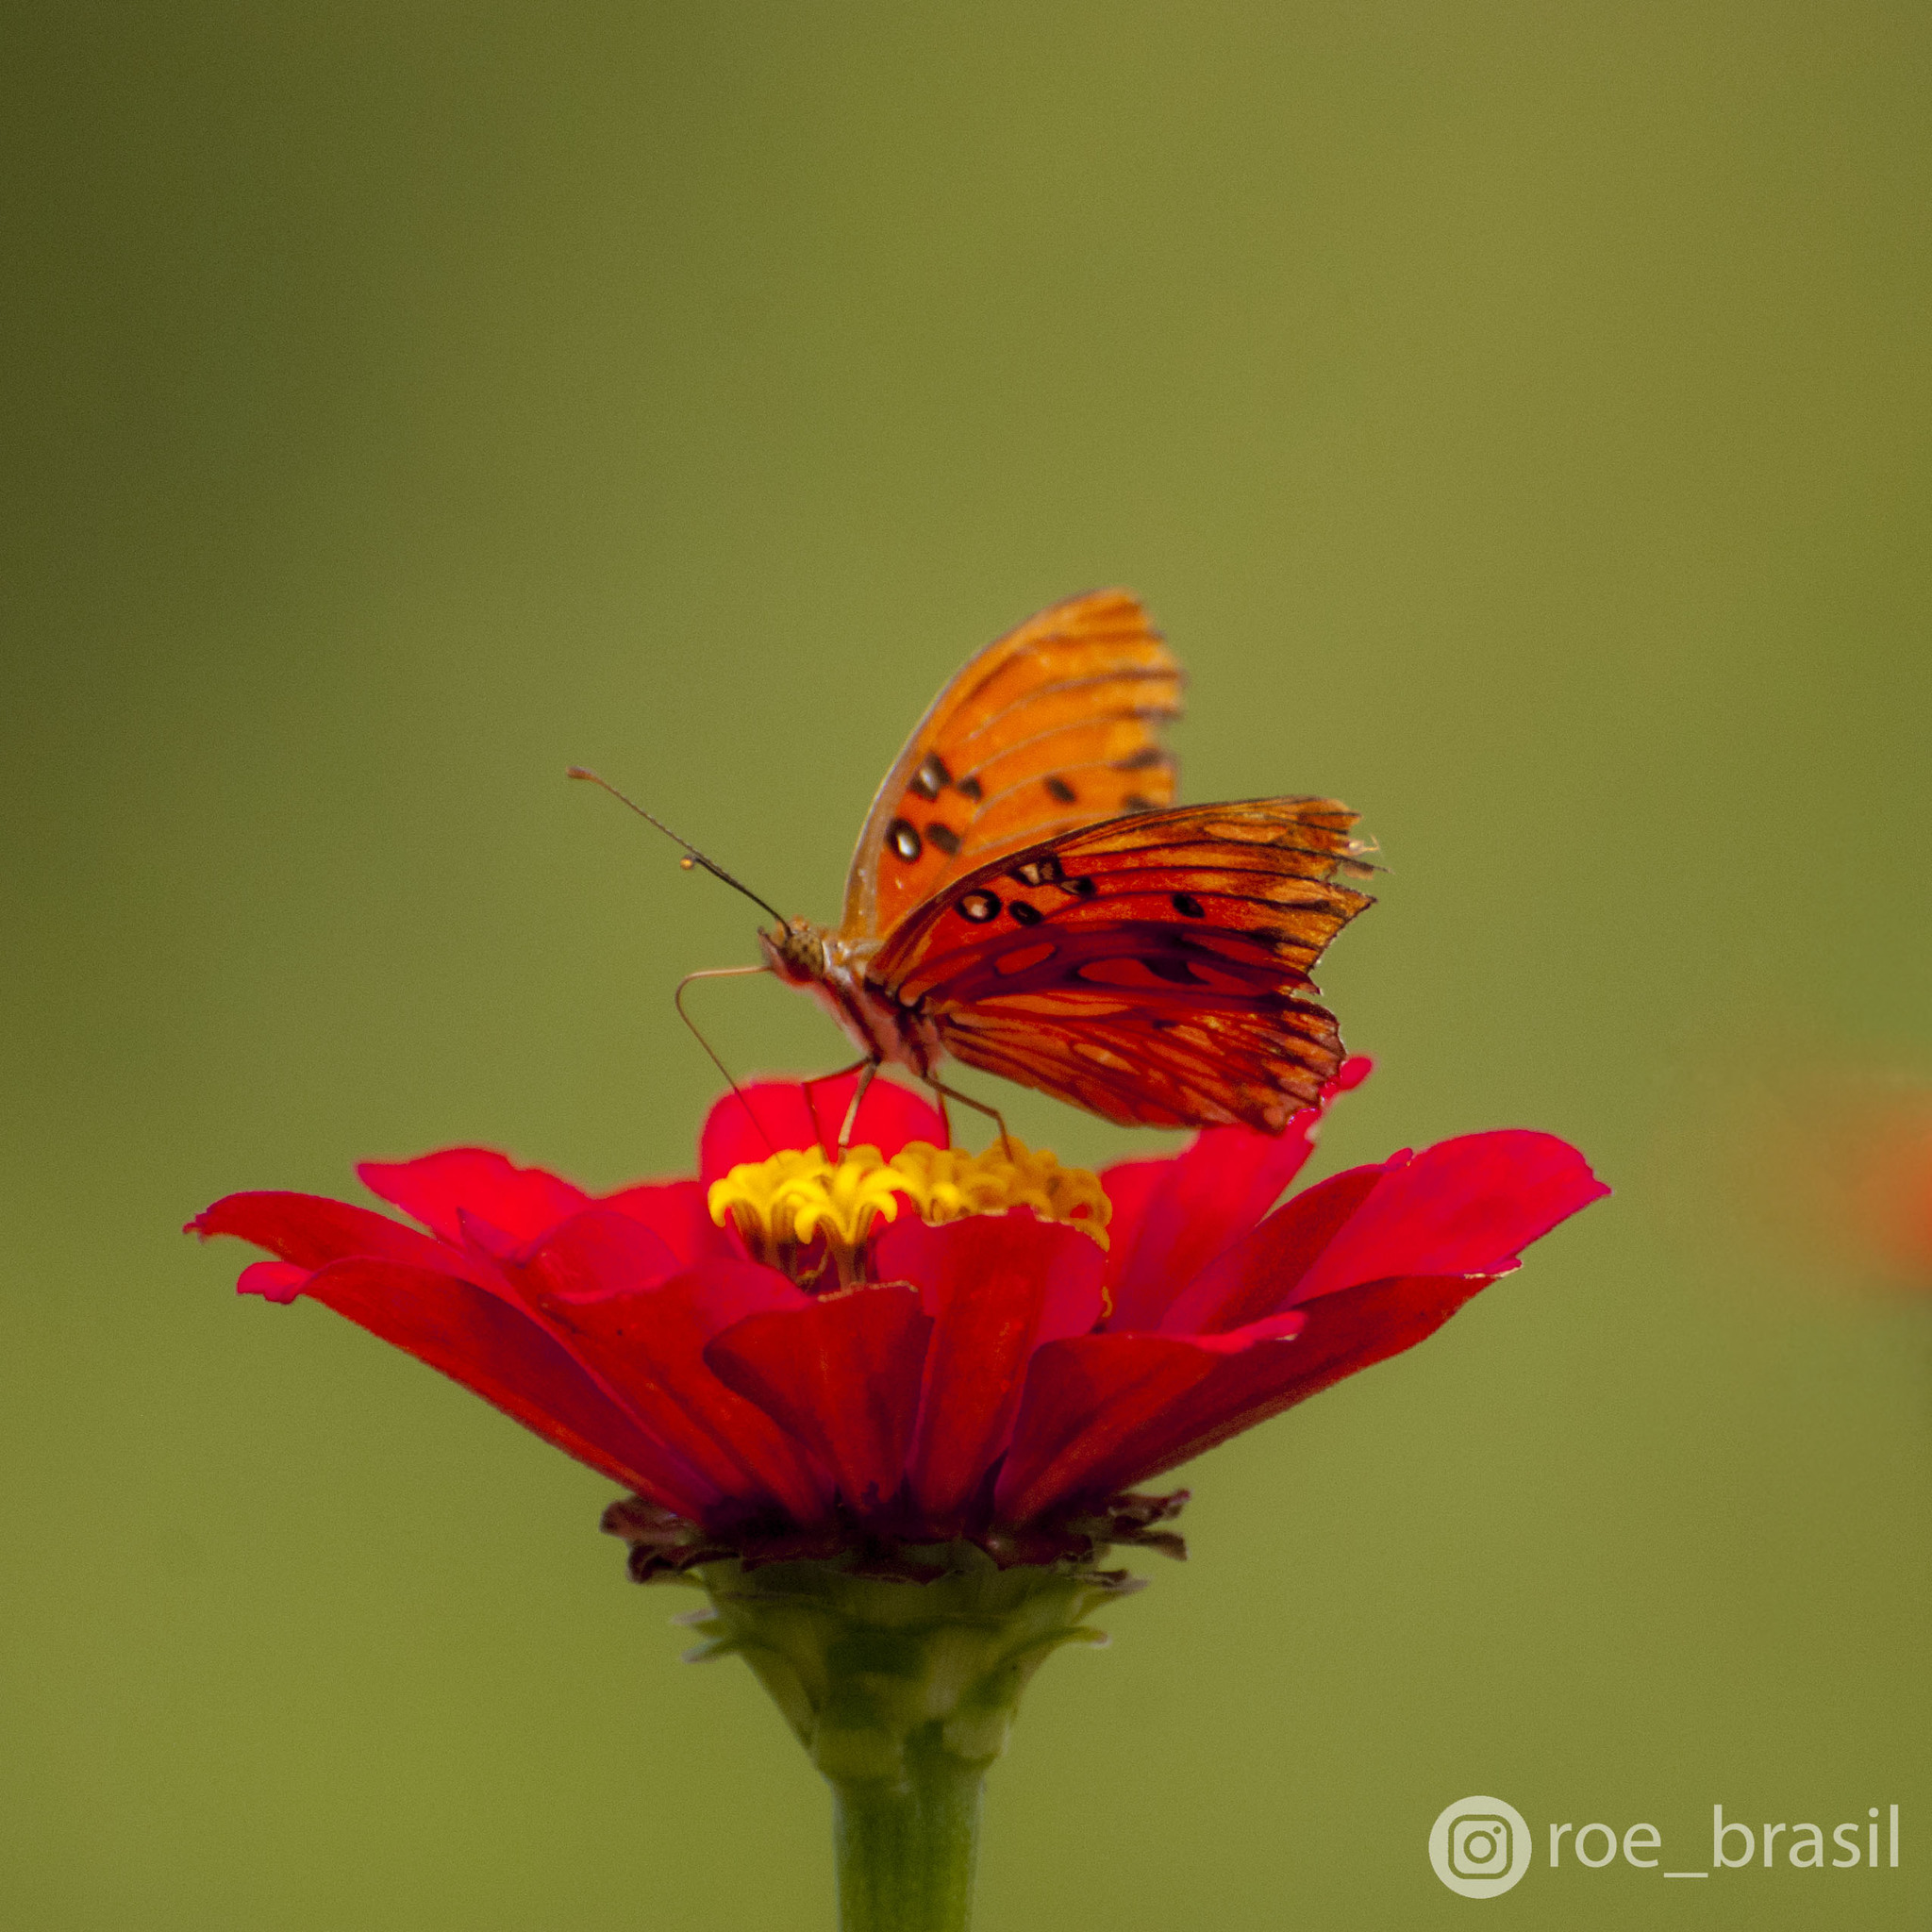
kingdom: Animalia
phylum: Arthropoda
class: Insecta
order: Lepidoptera
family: Nymphalidae
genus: Dione
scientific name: Dione vanillae
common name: Gulf fritillary
